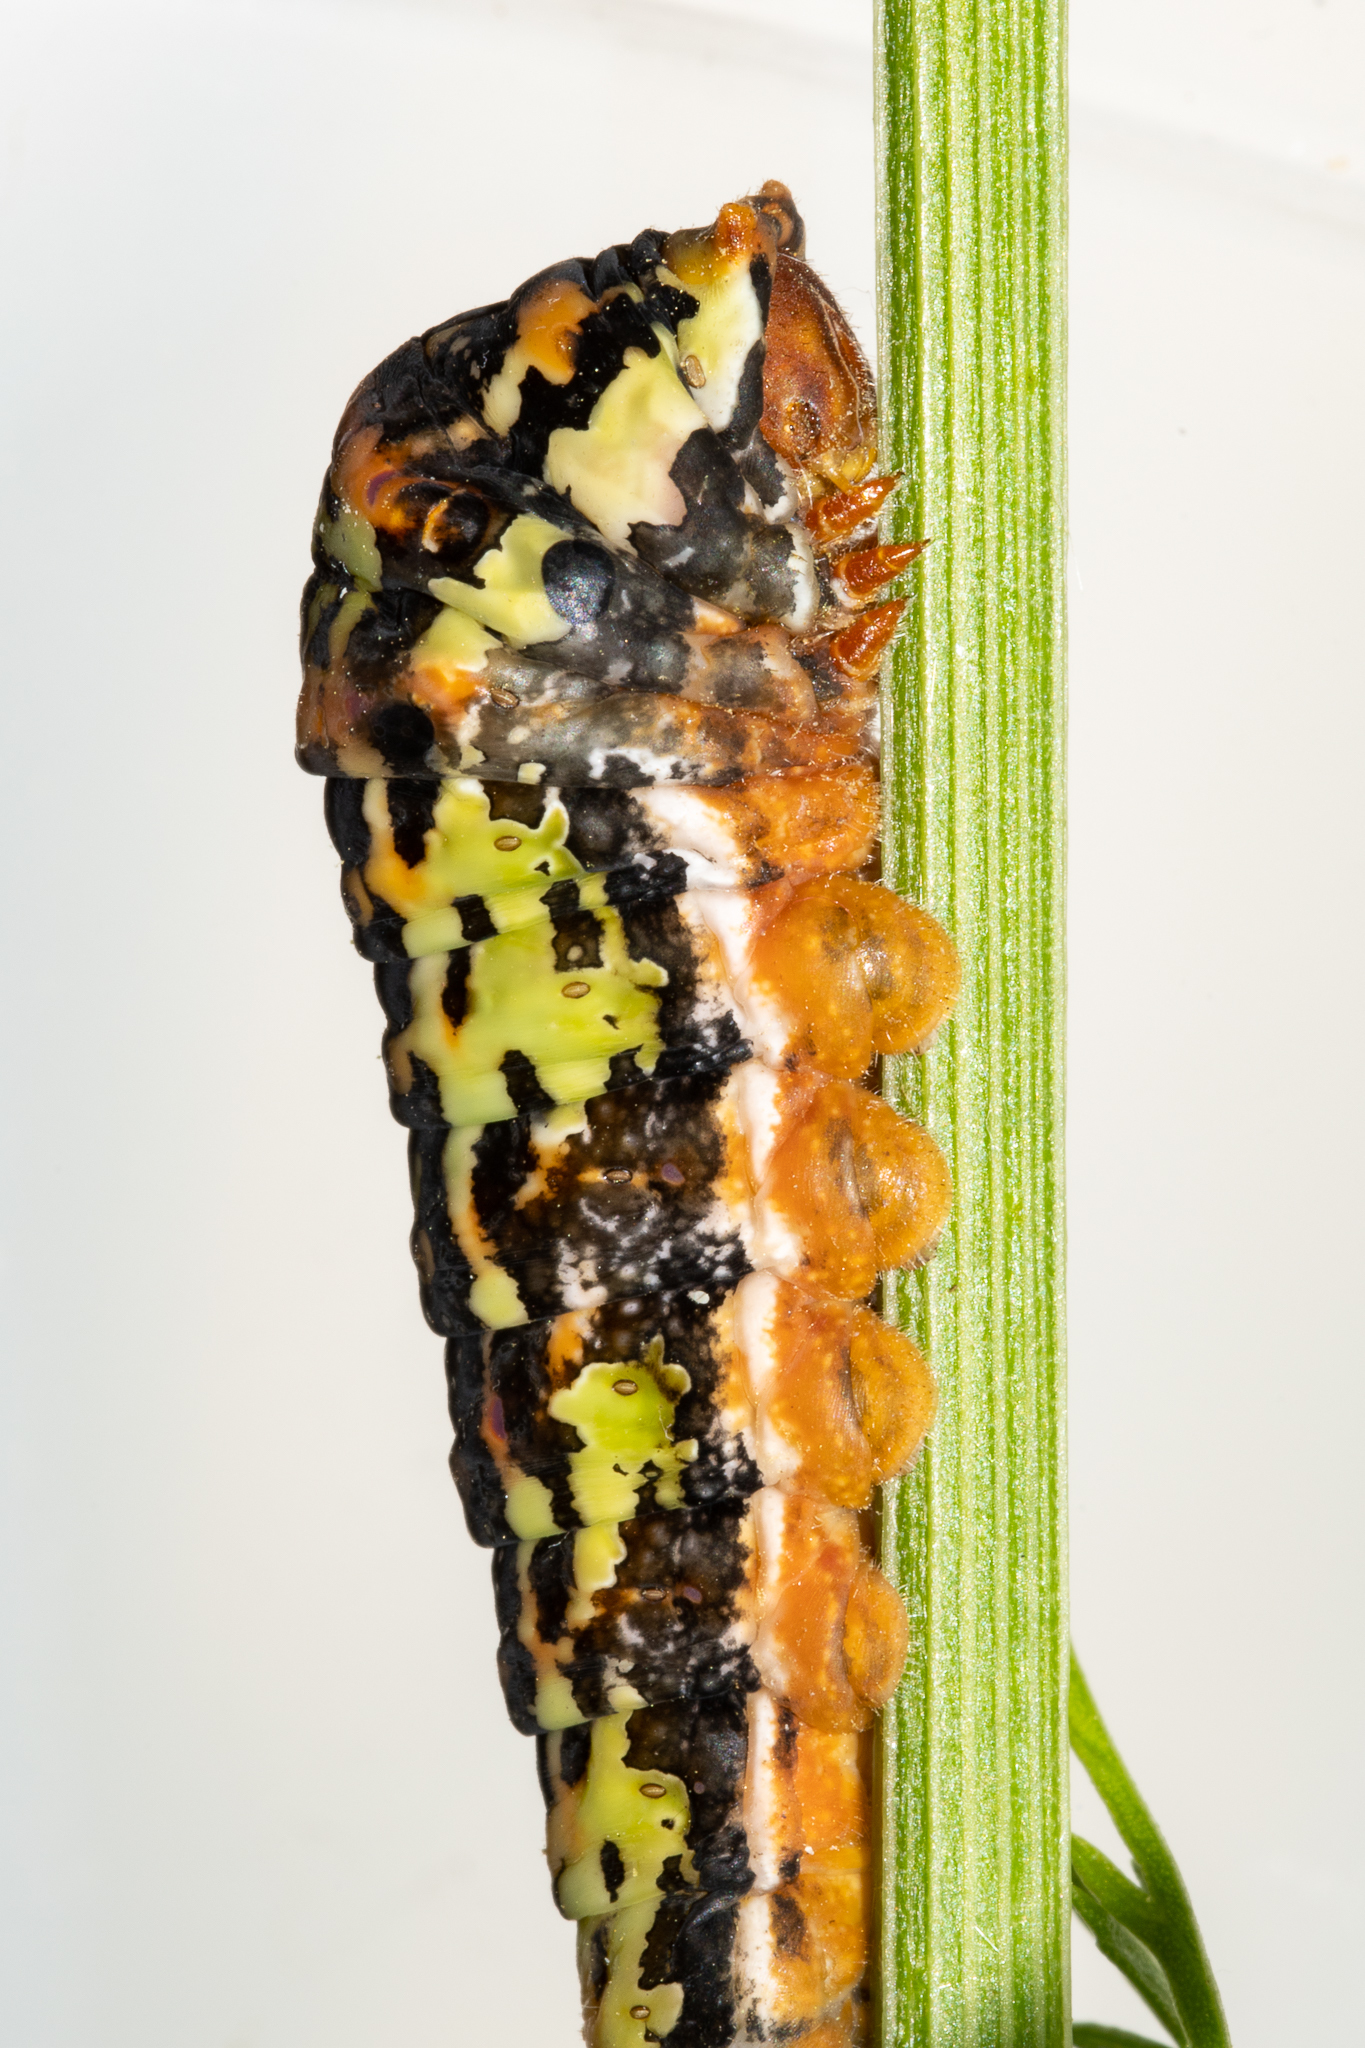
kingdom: Animalia
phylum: Arthropoda
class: Insecta
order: Lepidoptera
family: Papilionidae
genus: Papilio
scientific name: Papilio demodocus
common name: Christmas butterfly
